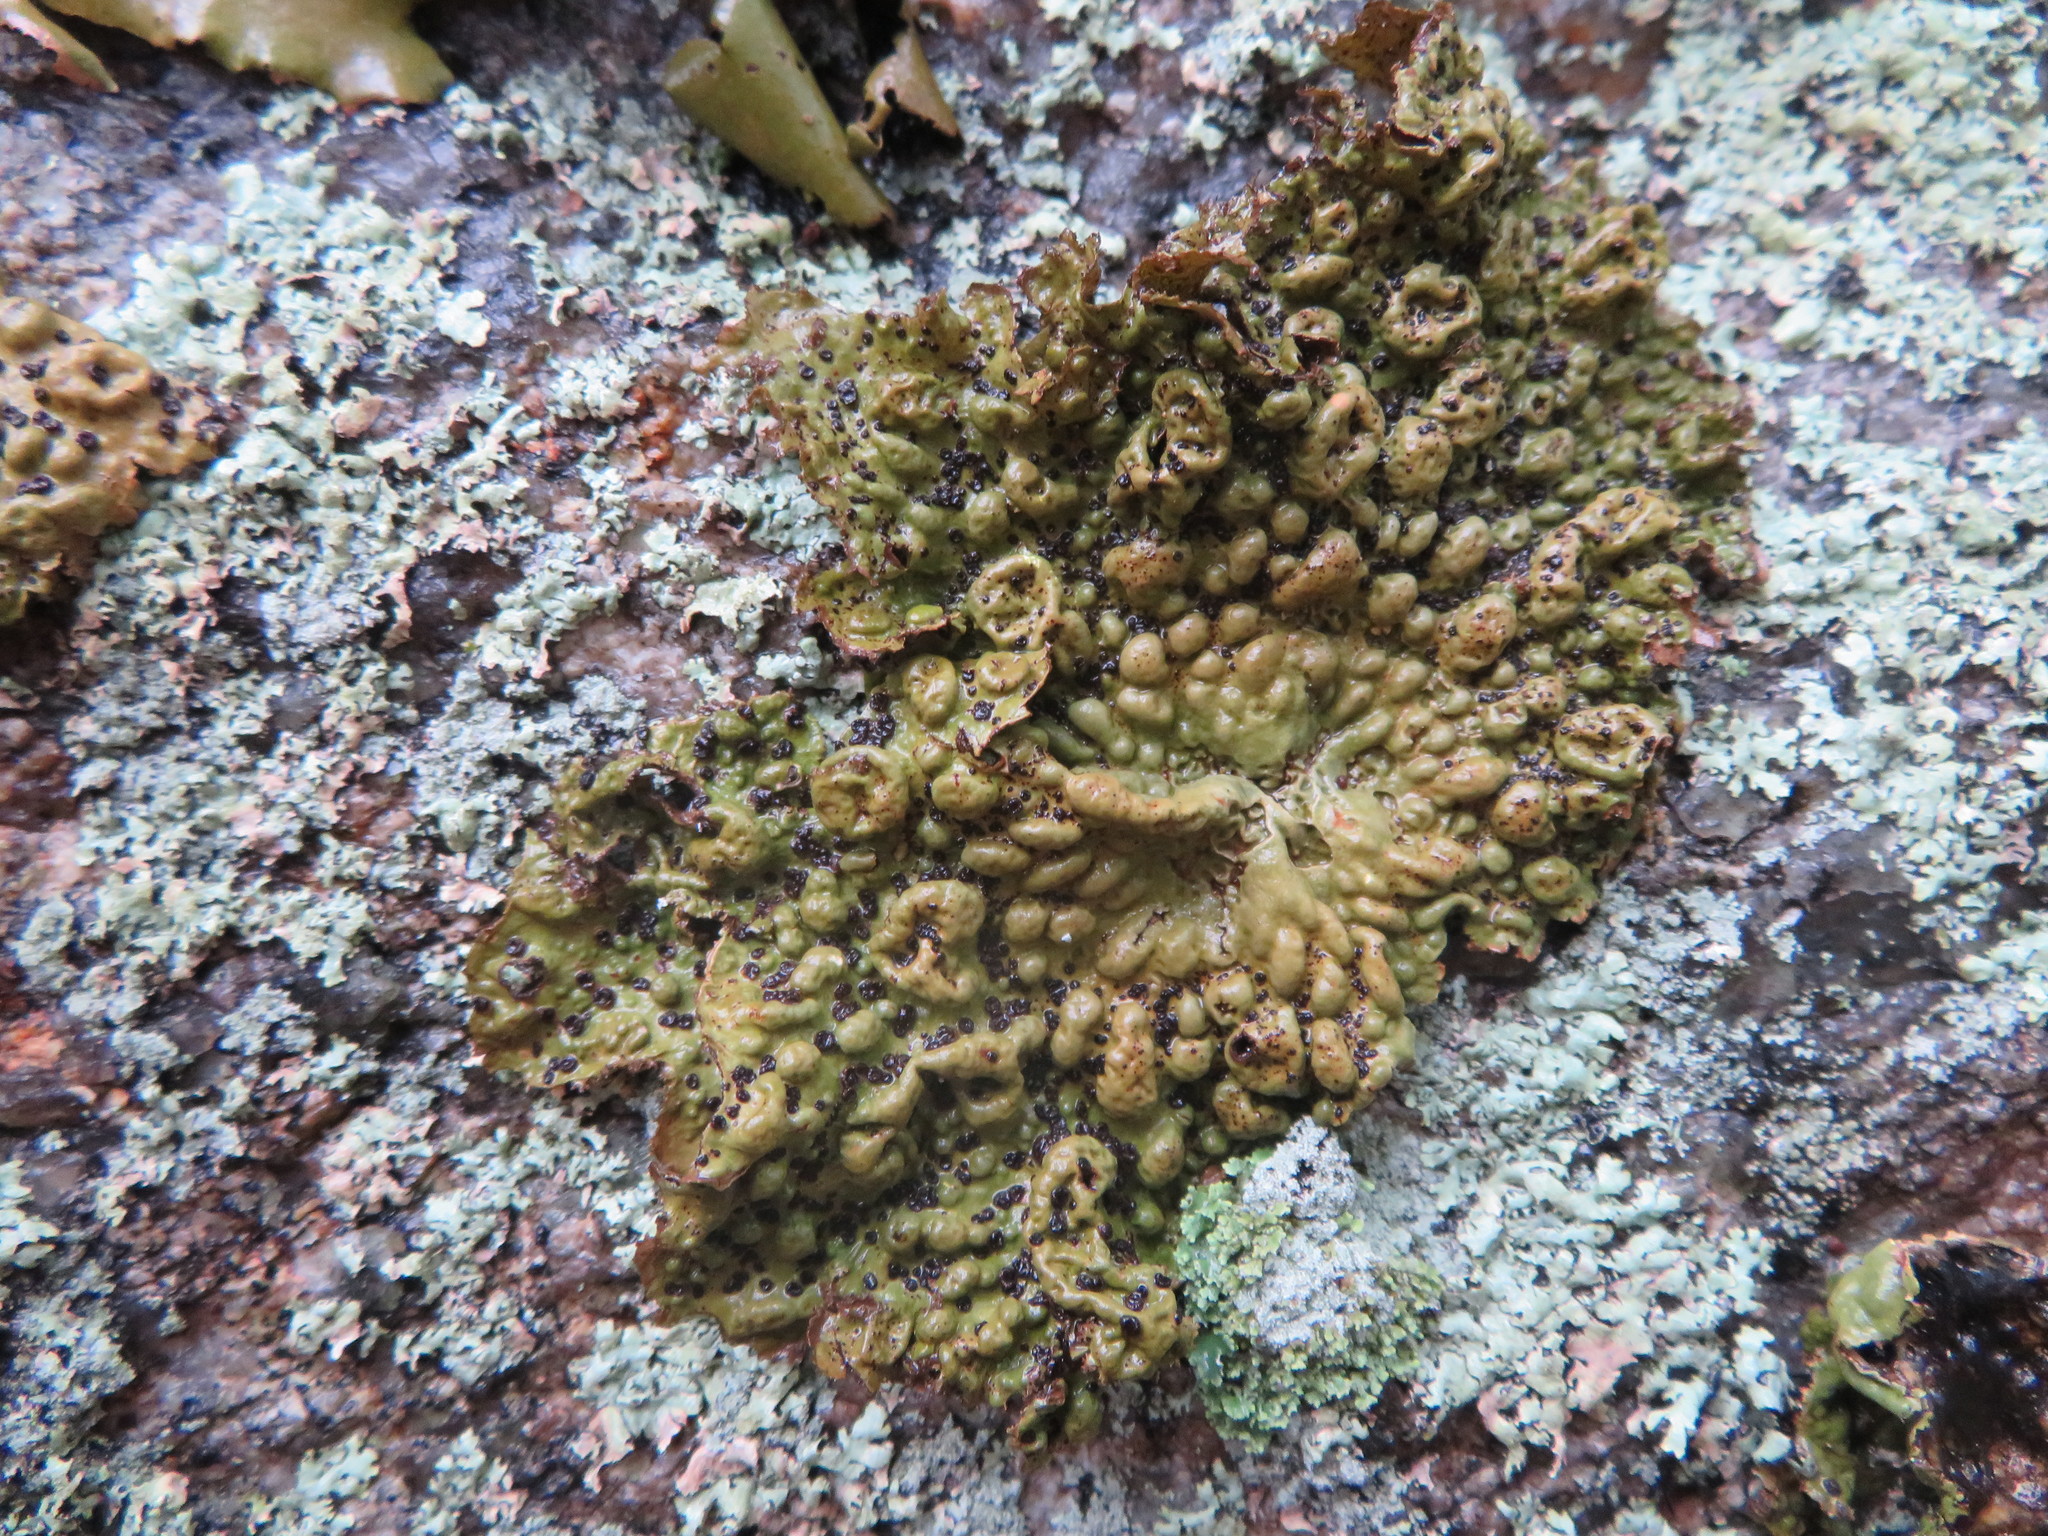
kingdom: Fungi
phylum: Ascomycota
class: Lecanoromycetes
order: Umbilicariales
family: Umbilicariaceae
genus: Lasallia
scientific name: Lasallia papulosa
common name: Common toadskin lichen
